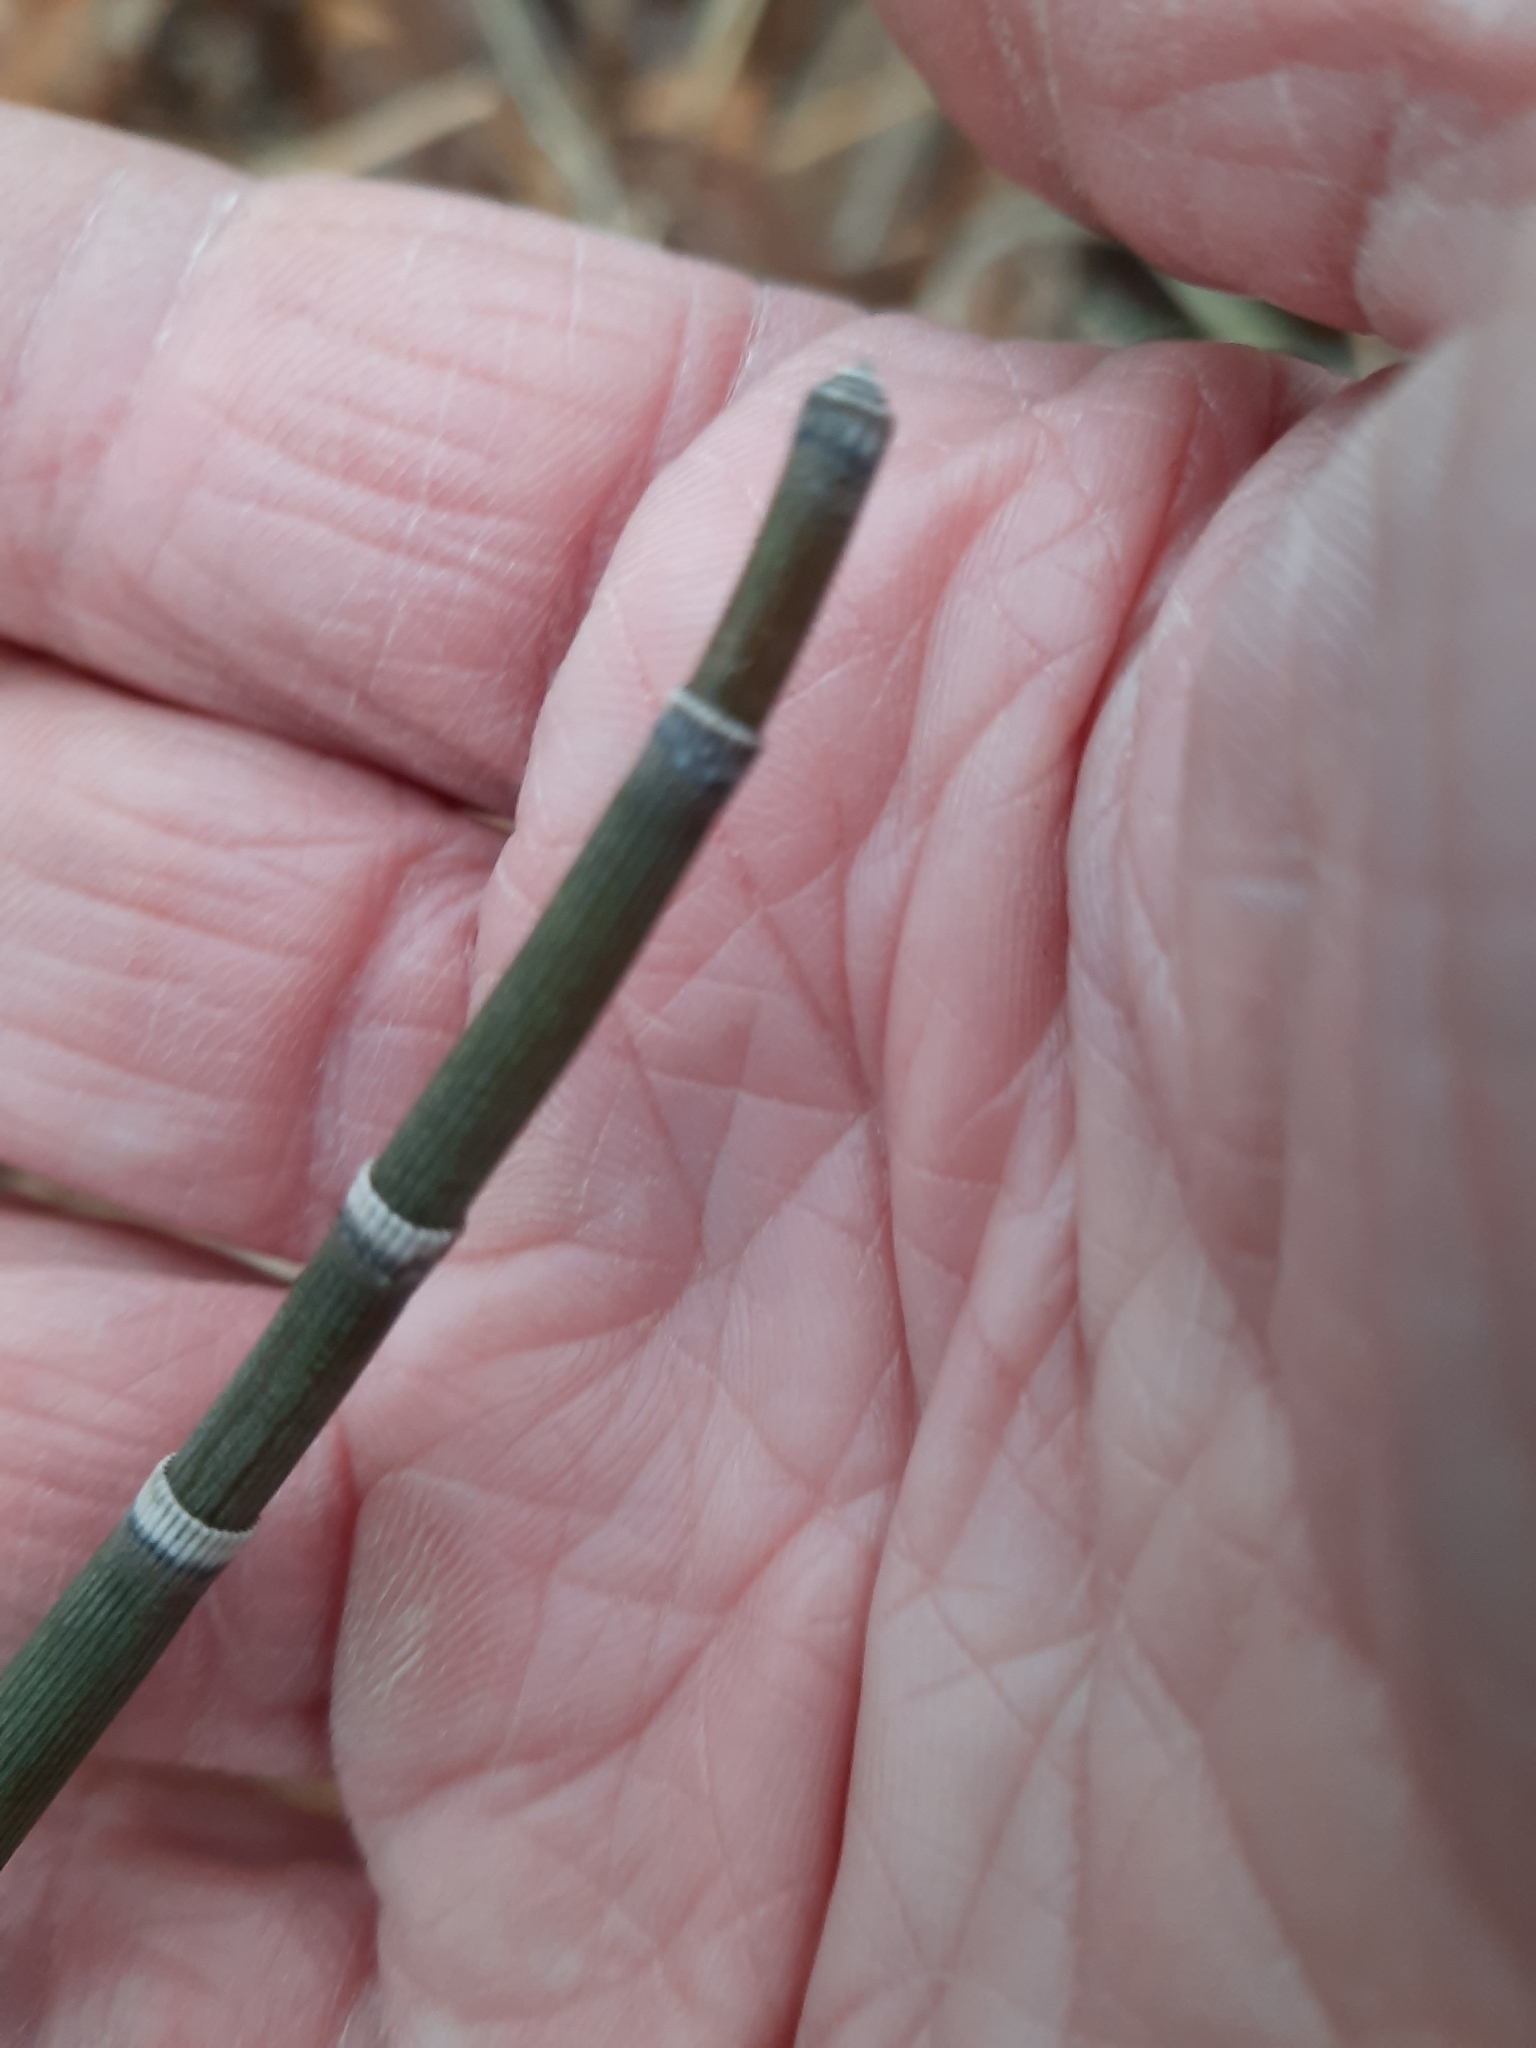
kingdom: Plantae
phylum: Tracheophyta
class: Polypodiopsida
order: Equisetales
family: Equisetaceae
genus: Equisetum
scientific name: Equisetum hyemale
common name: Rough horsetail
